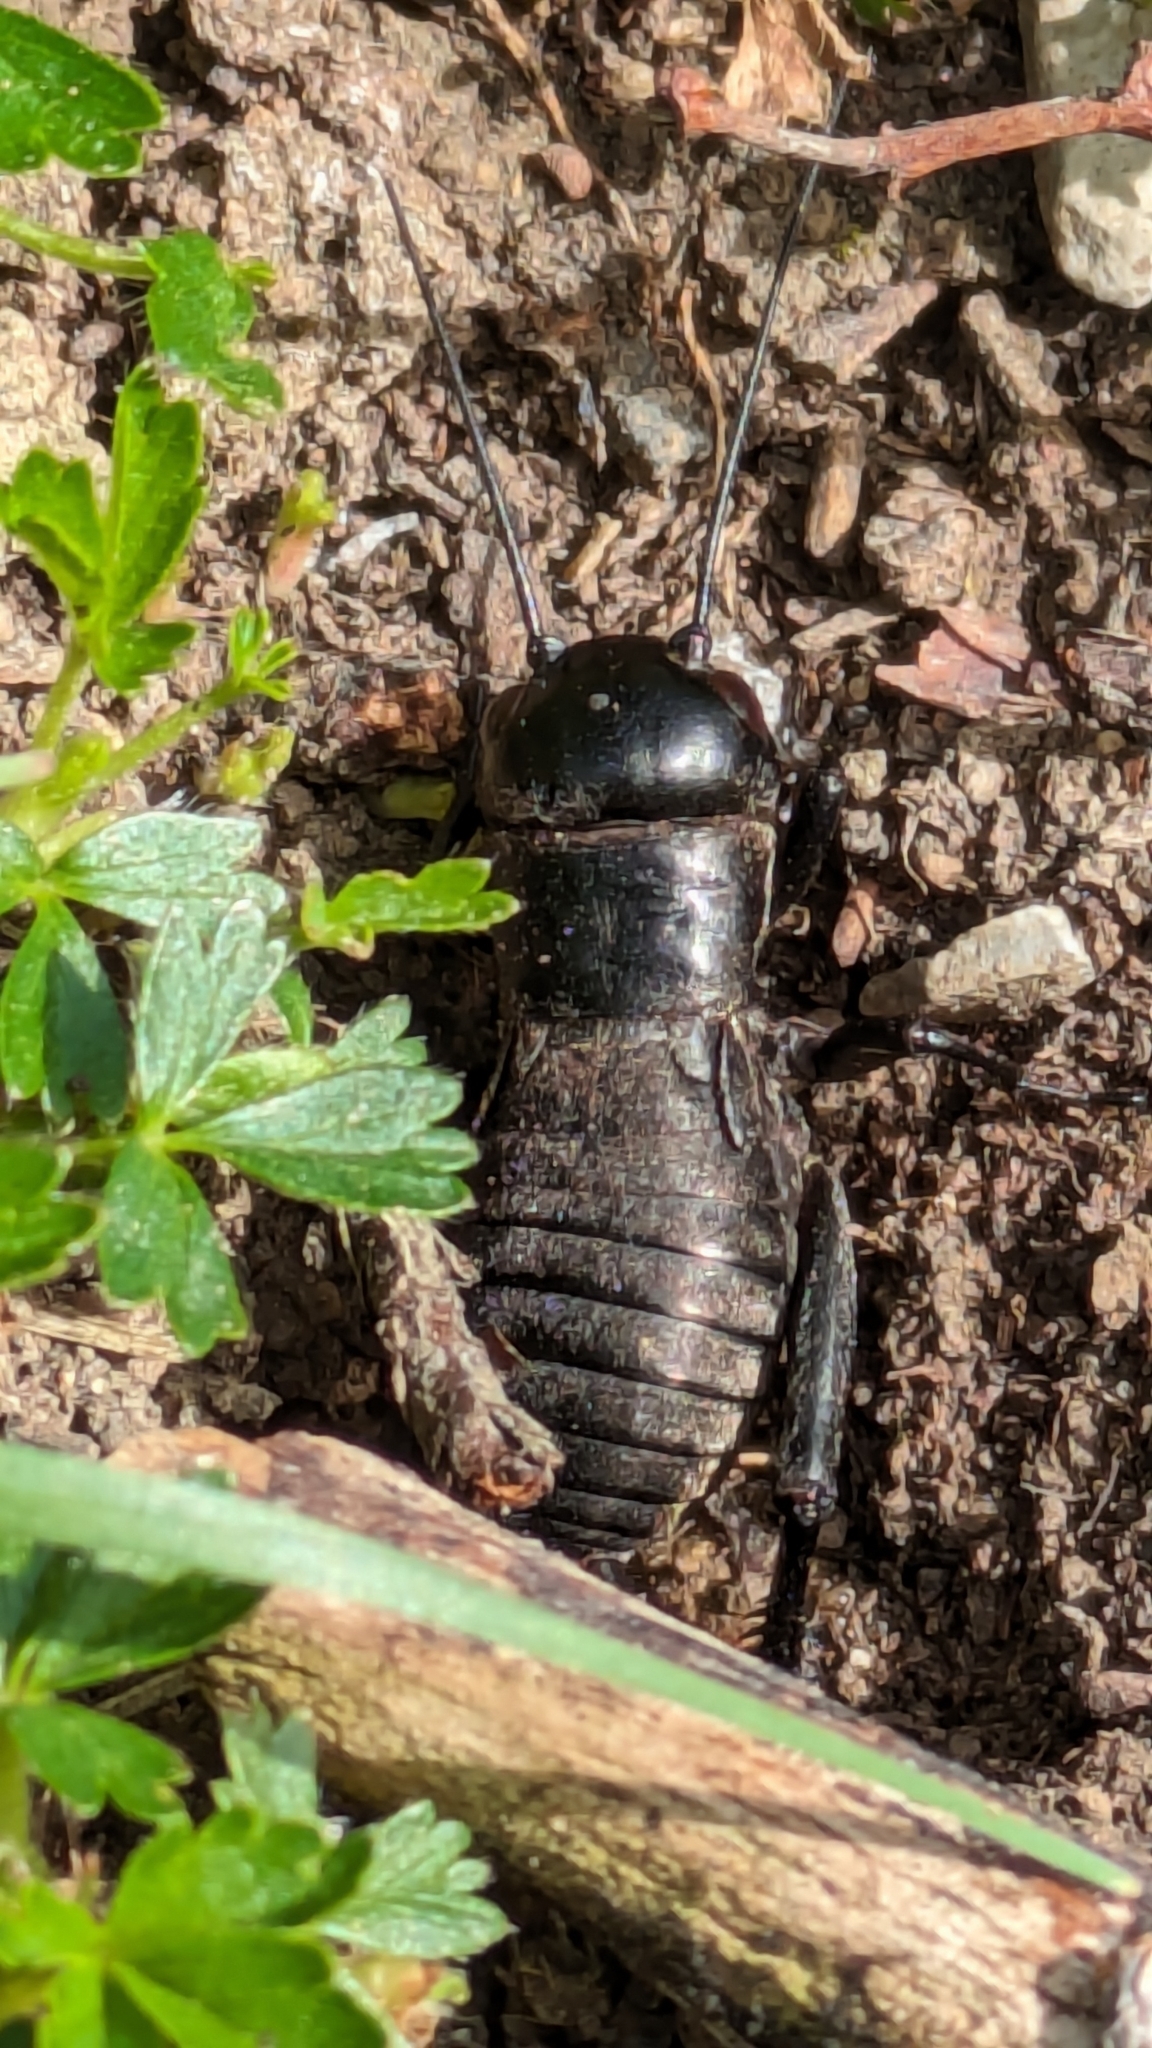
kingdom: Animalia
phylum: Arthropoda
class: Insecta
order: Orthoptera
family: Gryllidae
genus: Gryllus
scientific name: Gryllus campestris
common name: Field cricket
